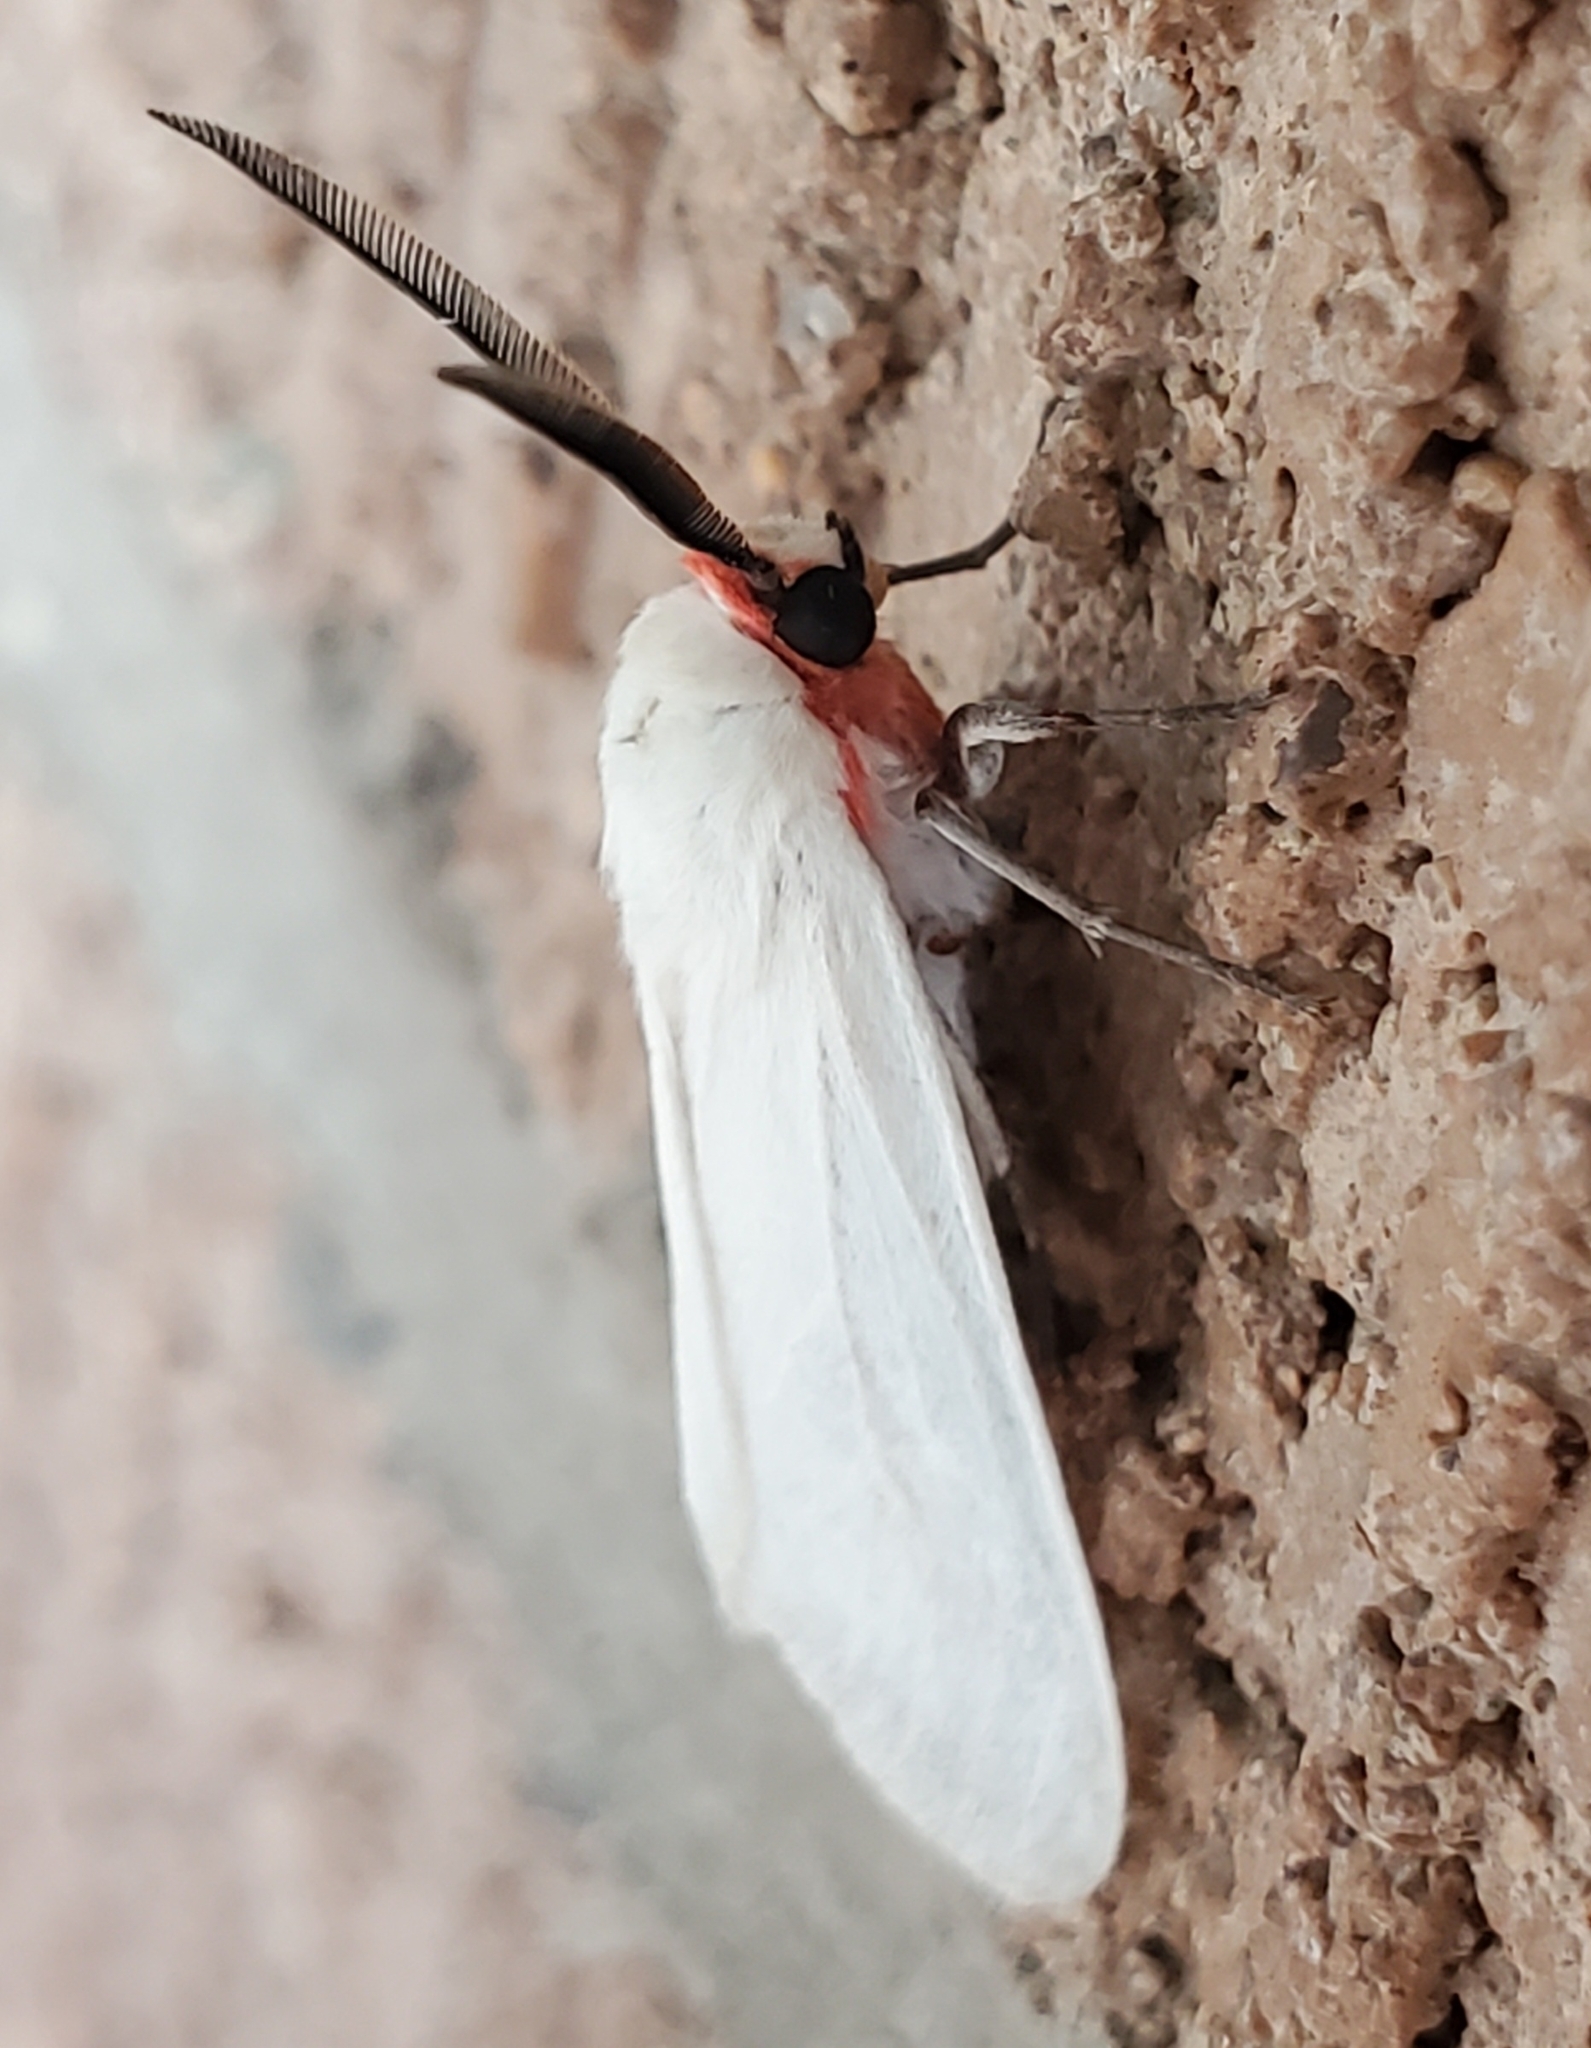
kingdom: Animalia
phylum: Arthropoda
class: Insecta
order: Lepidoptera
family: Erebidae
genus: Pygarctia
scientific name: Pygarctia roseicapitis
